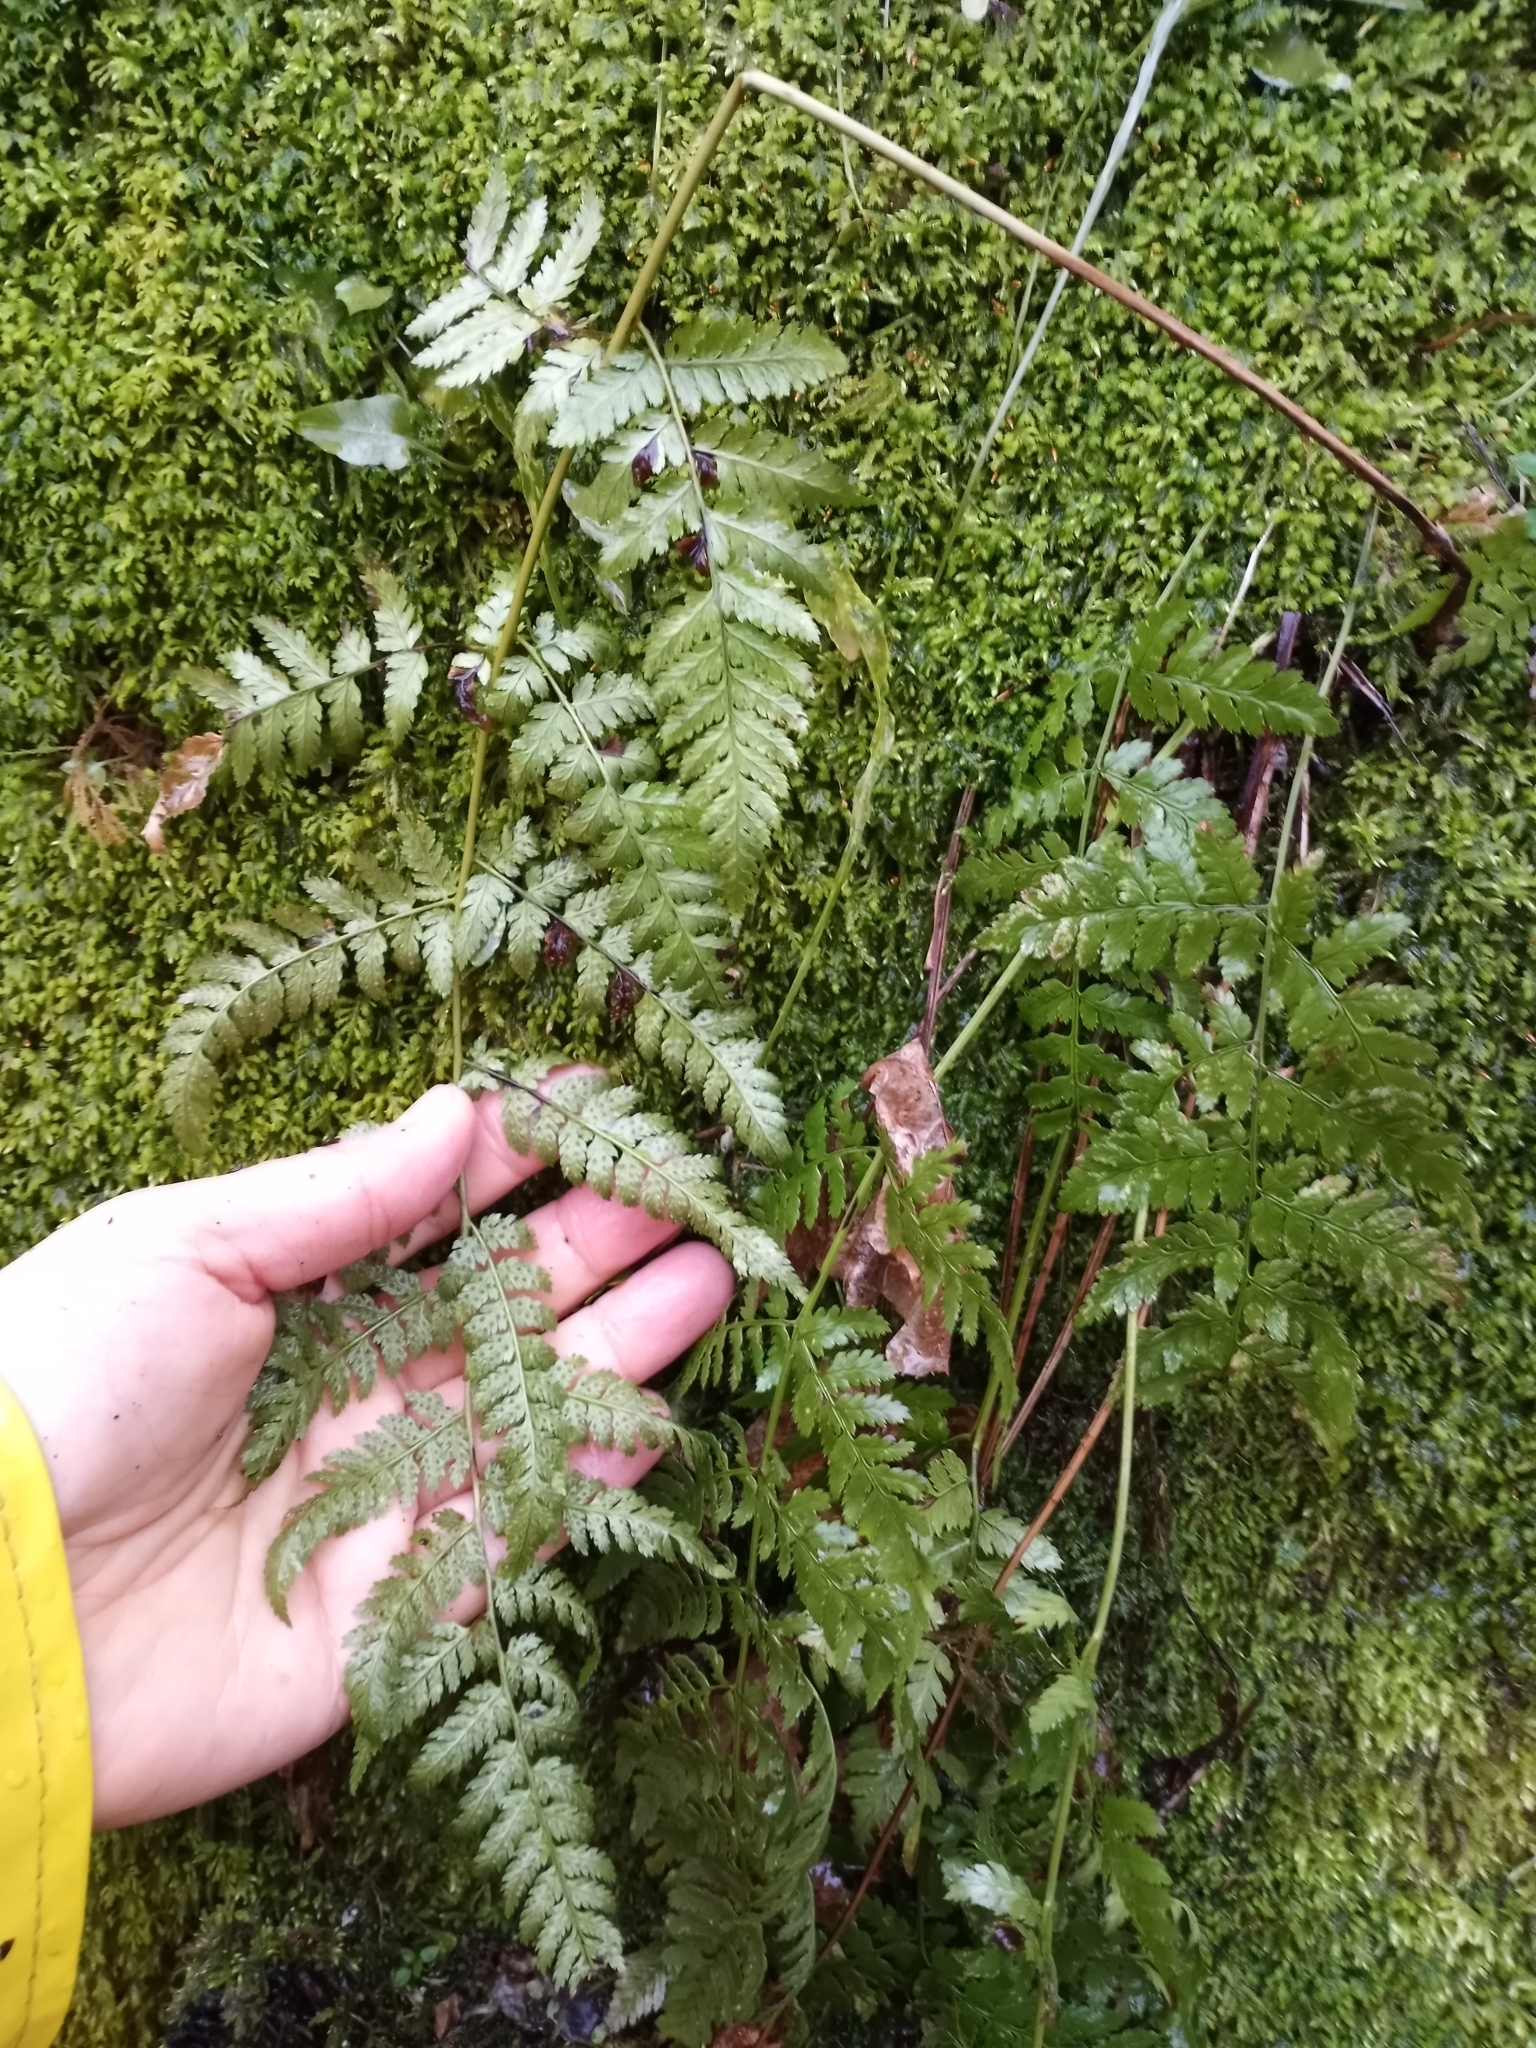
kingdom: Plantae
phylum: Tracheophyta
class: Polypodiopsida
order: Polypodiales
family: Dryopteridaceae
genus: Dryopteris
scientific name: Dryopteris intermedia
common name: Evergreen wood fern
